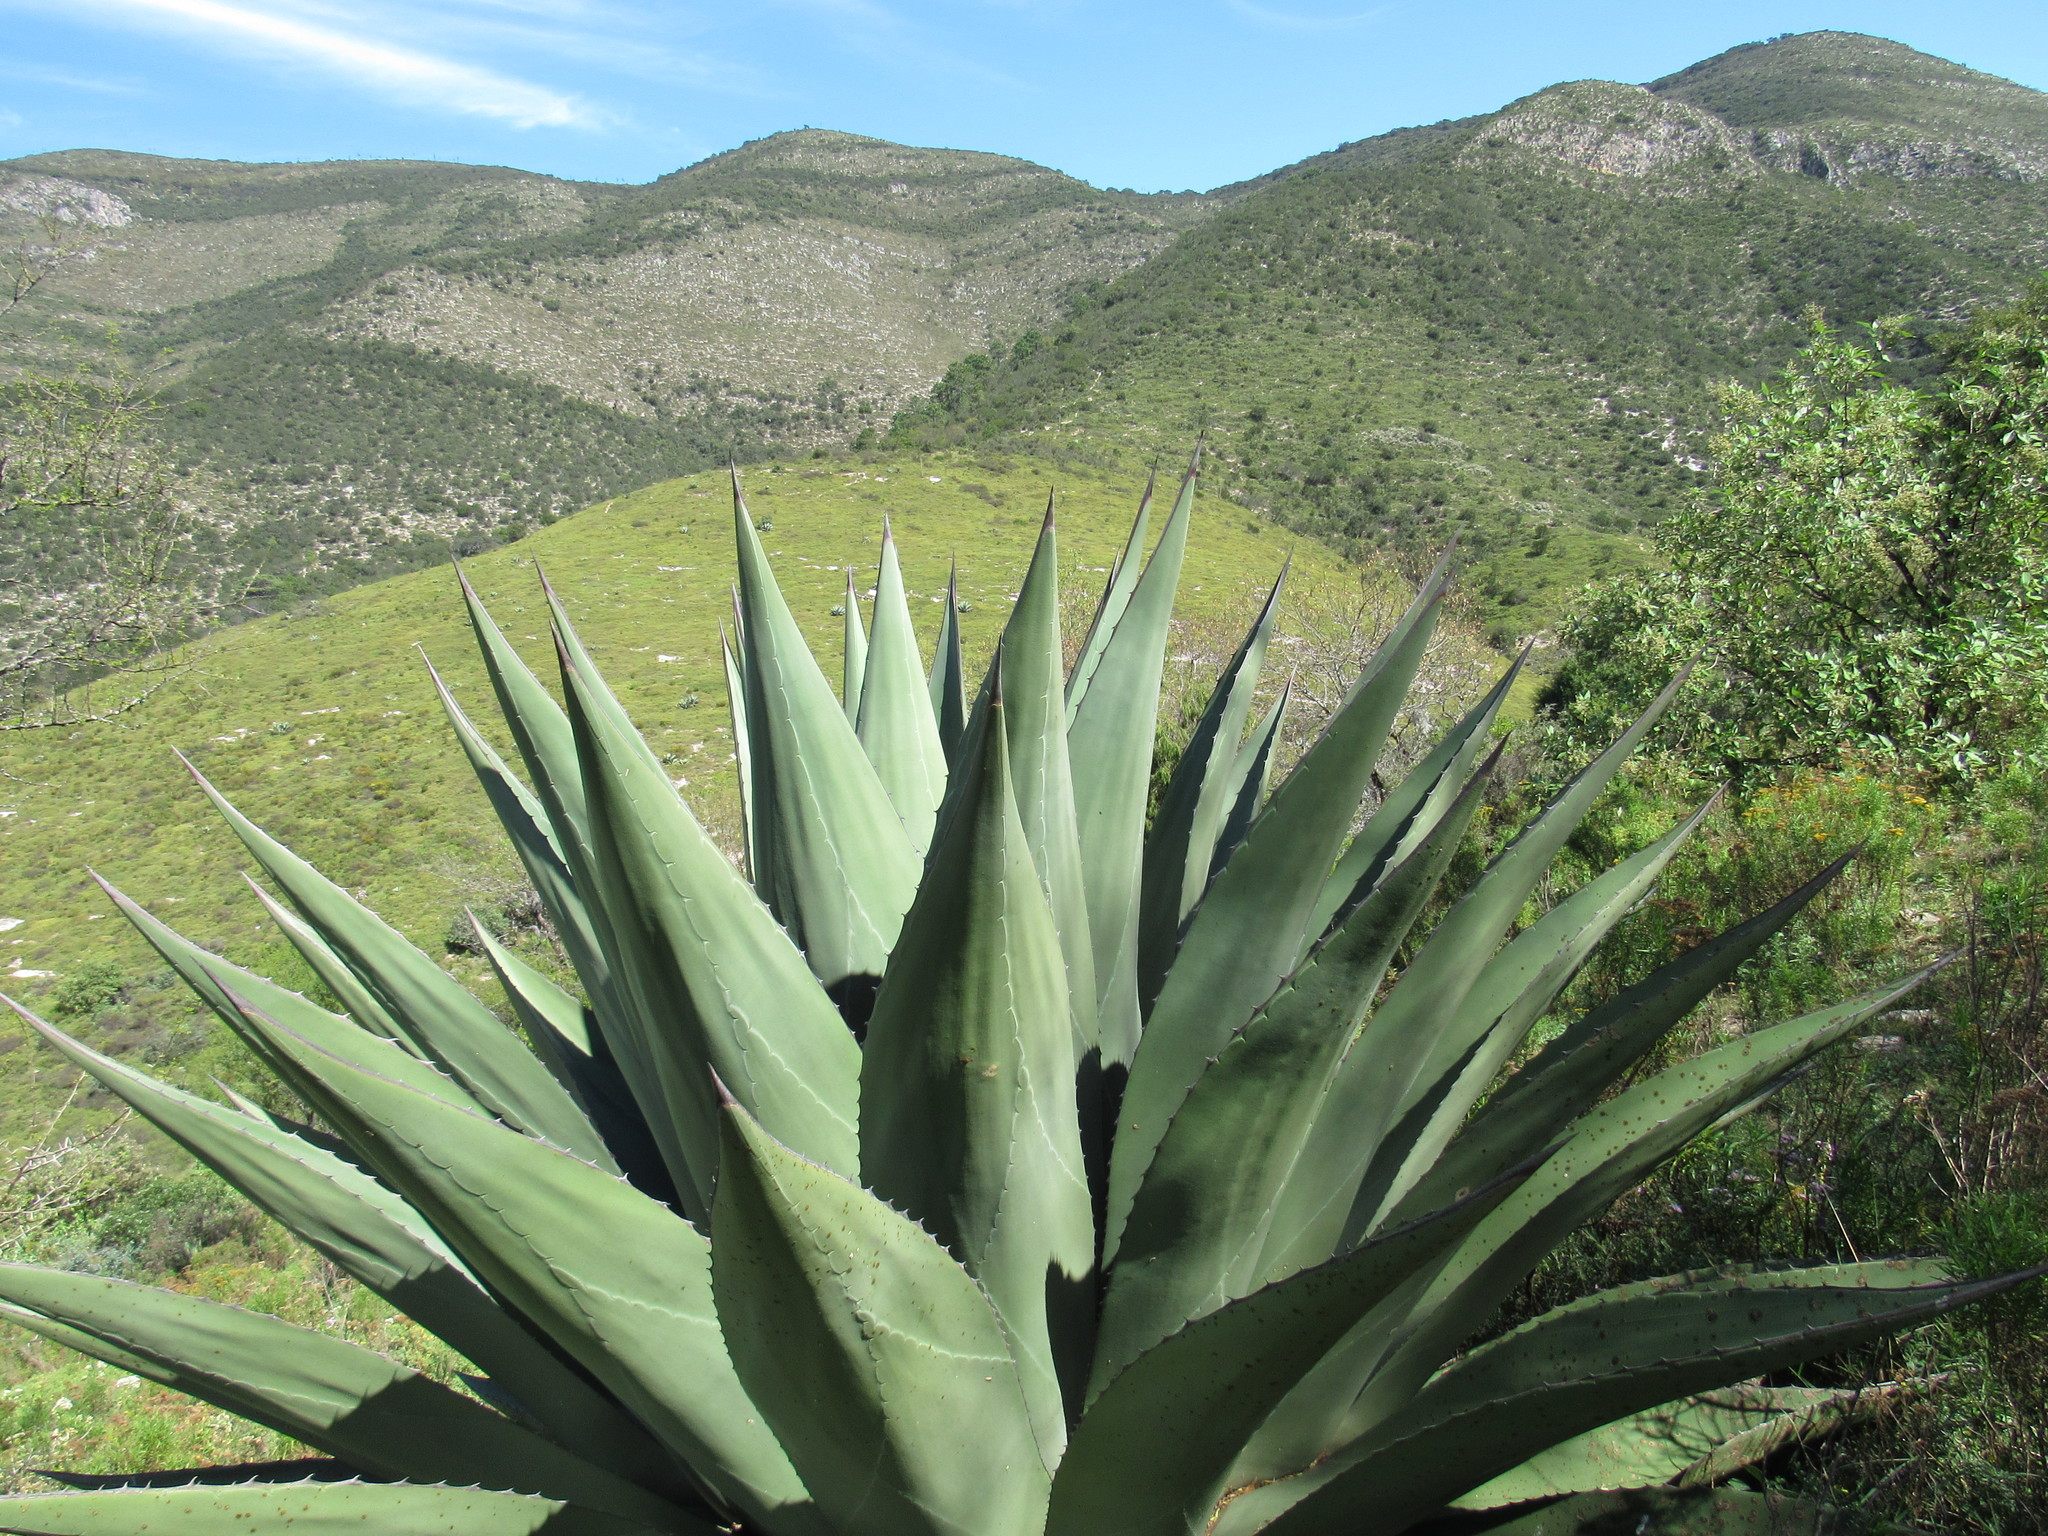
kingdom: Plantae
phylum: Tracheophyta
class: Liliopsida
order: Asparagales
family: Asparagaceae
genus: Agave
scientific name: Agave gentryi
